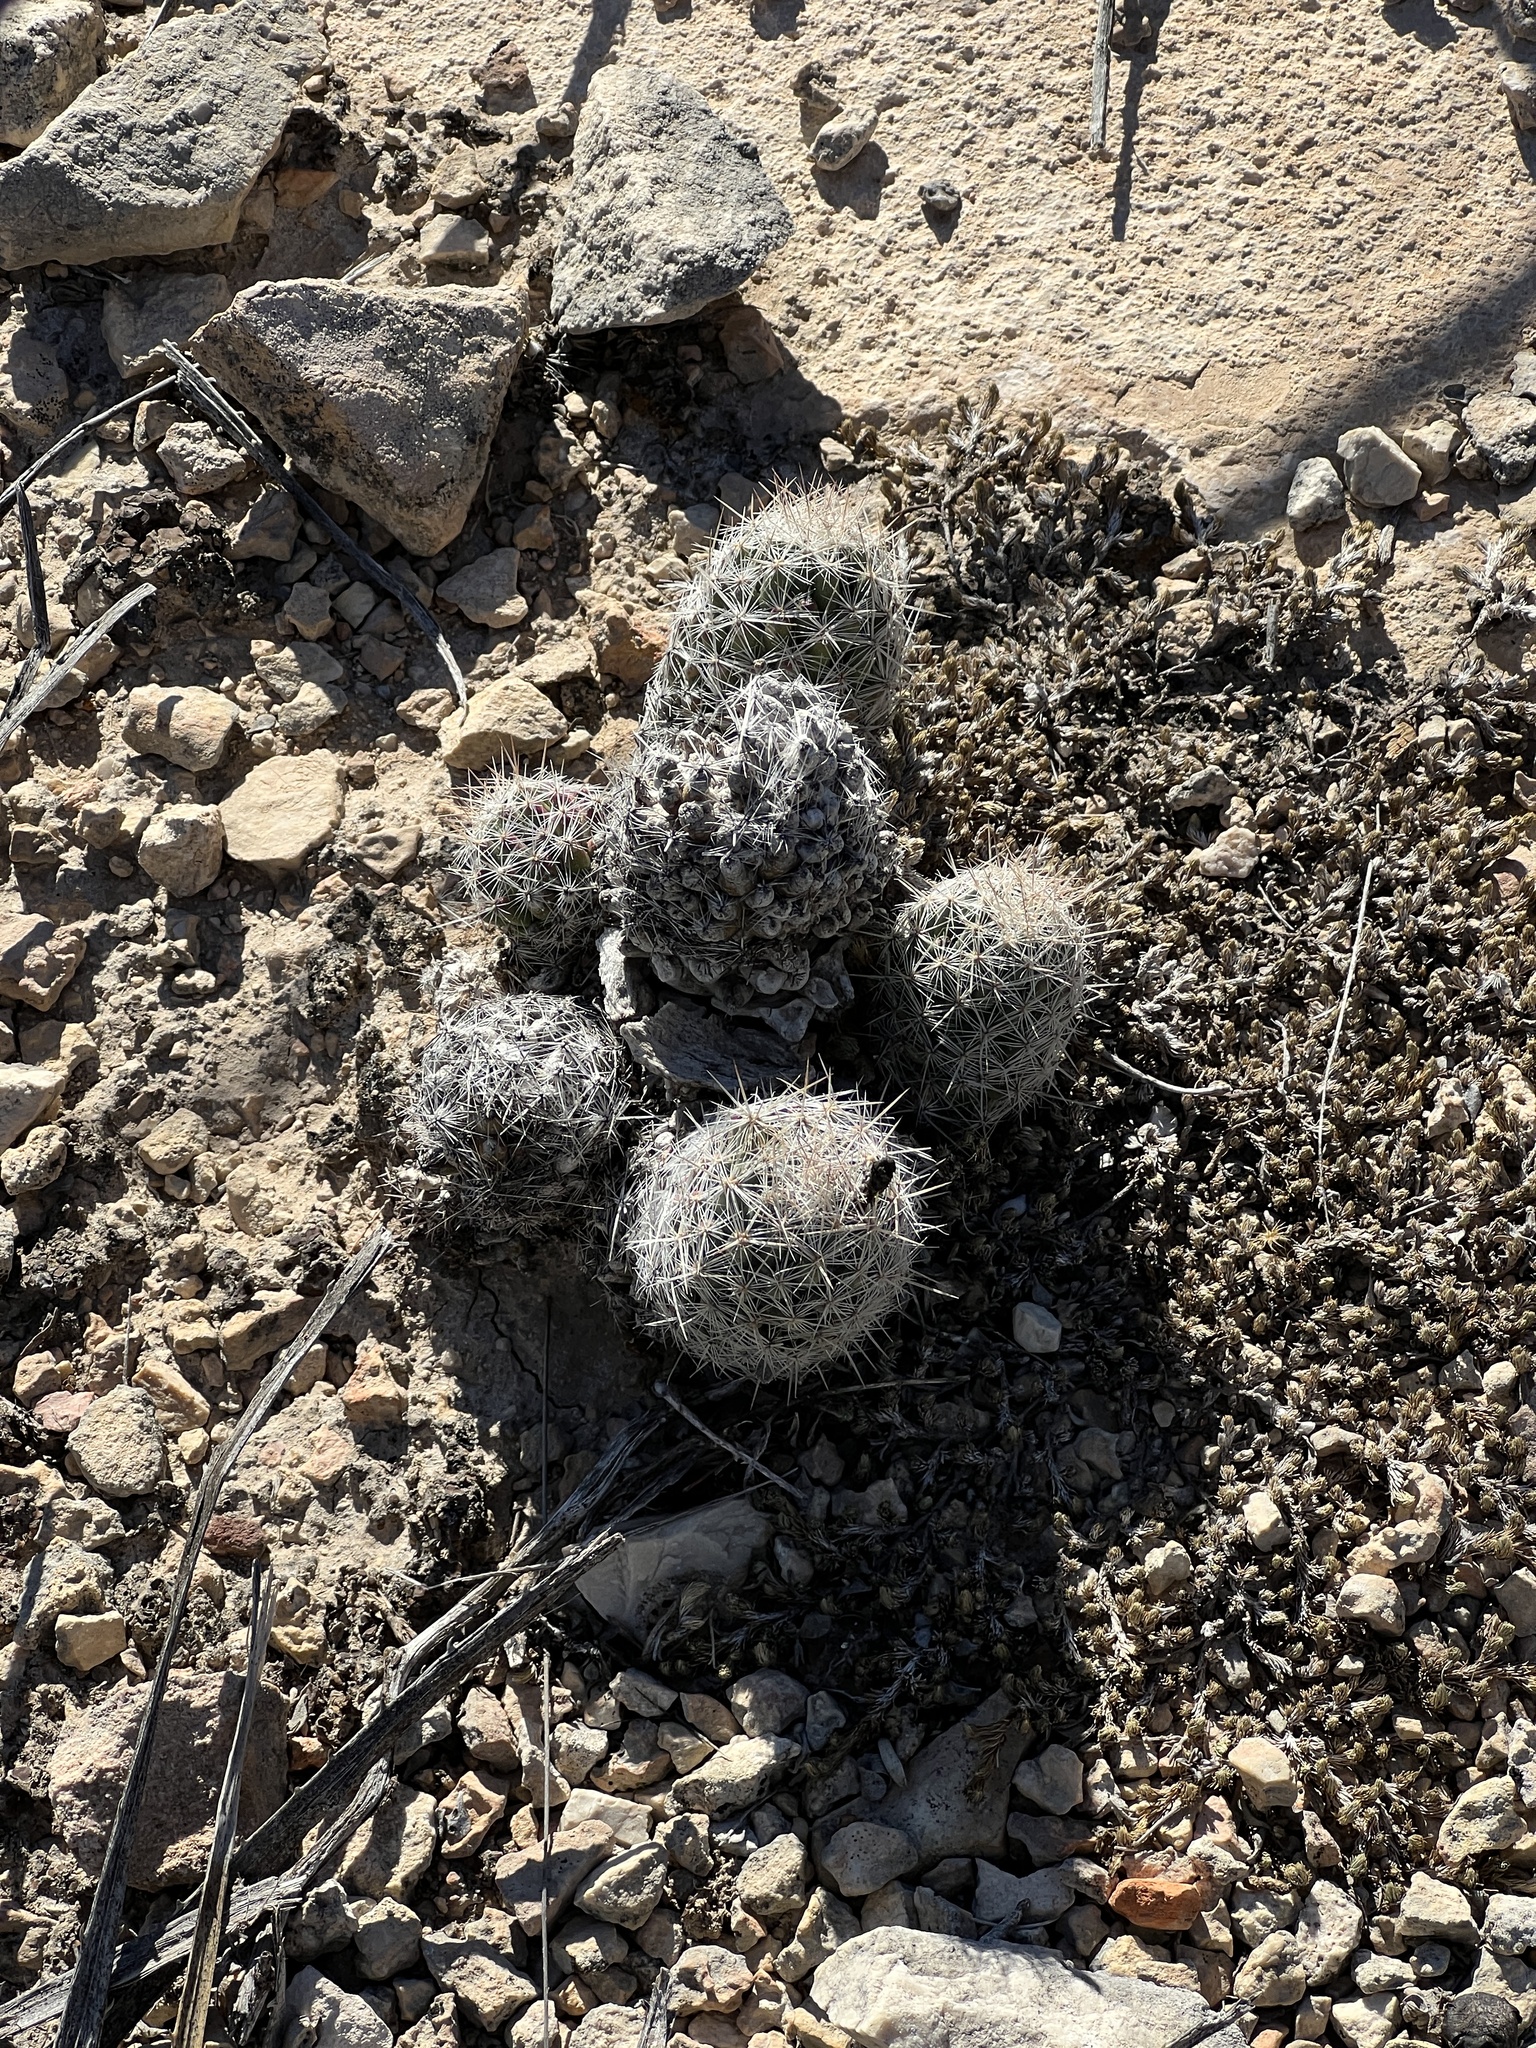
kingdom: Plantae
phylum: Tracheophyta
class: Magnoliopsida
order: Caryophyllales
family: Cactaceae
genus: Pelecyphora
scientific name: Pelecyphora tuberculosa
